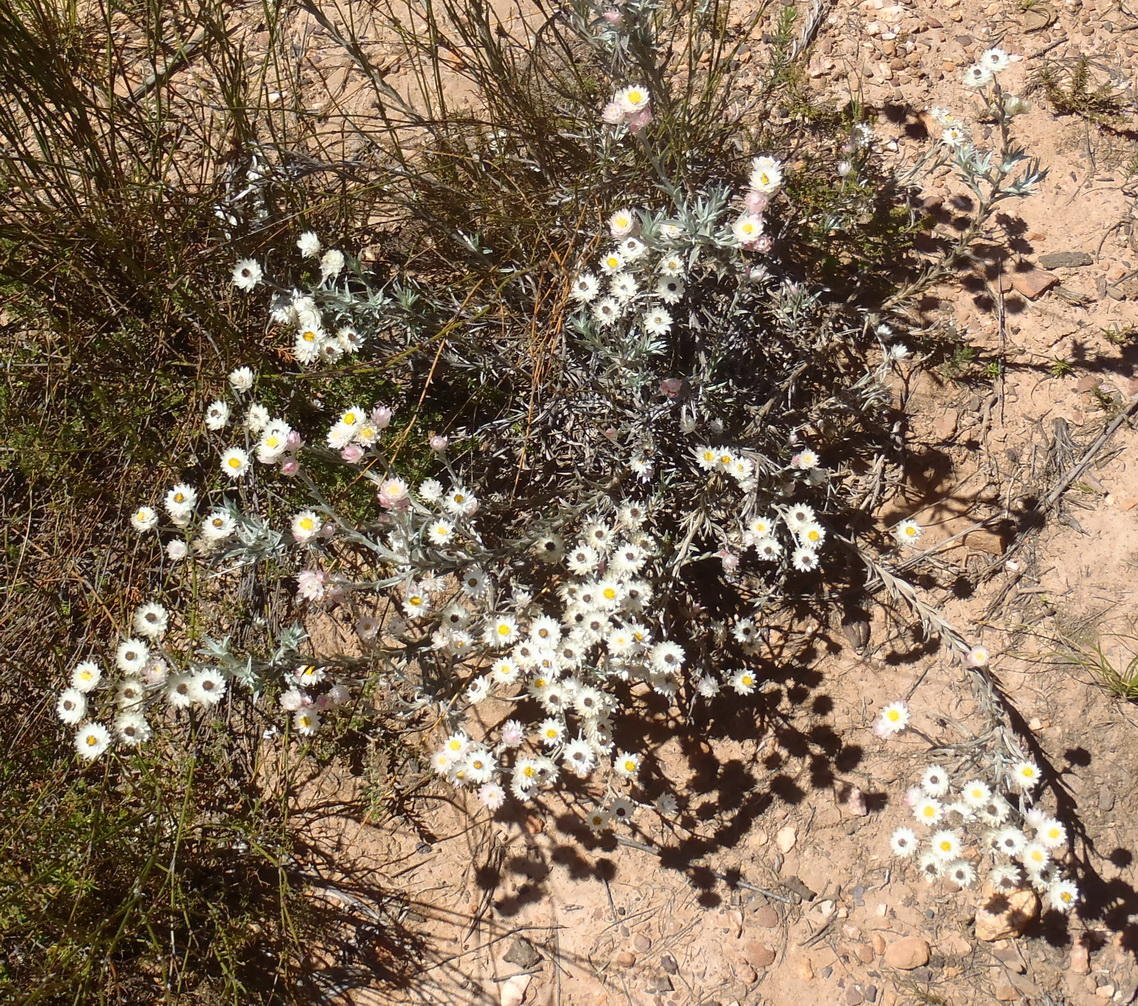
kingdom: Plantae
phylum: Tracheophyta
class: Magnoliopsida
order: Asterales
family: Asteraceae
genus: Achyranthemum
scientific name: Achyranthemum paniculatum
